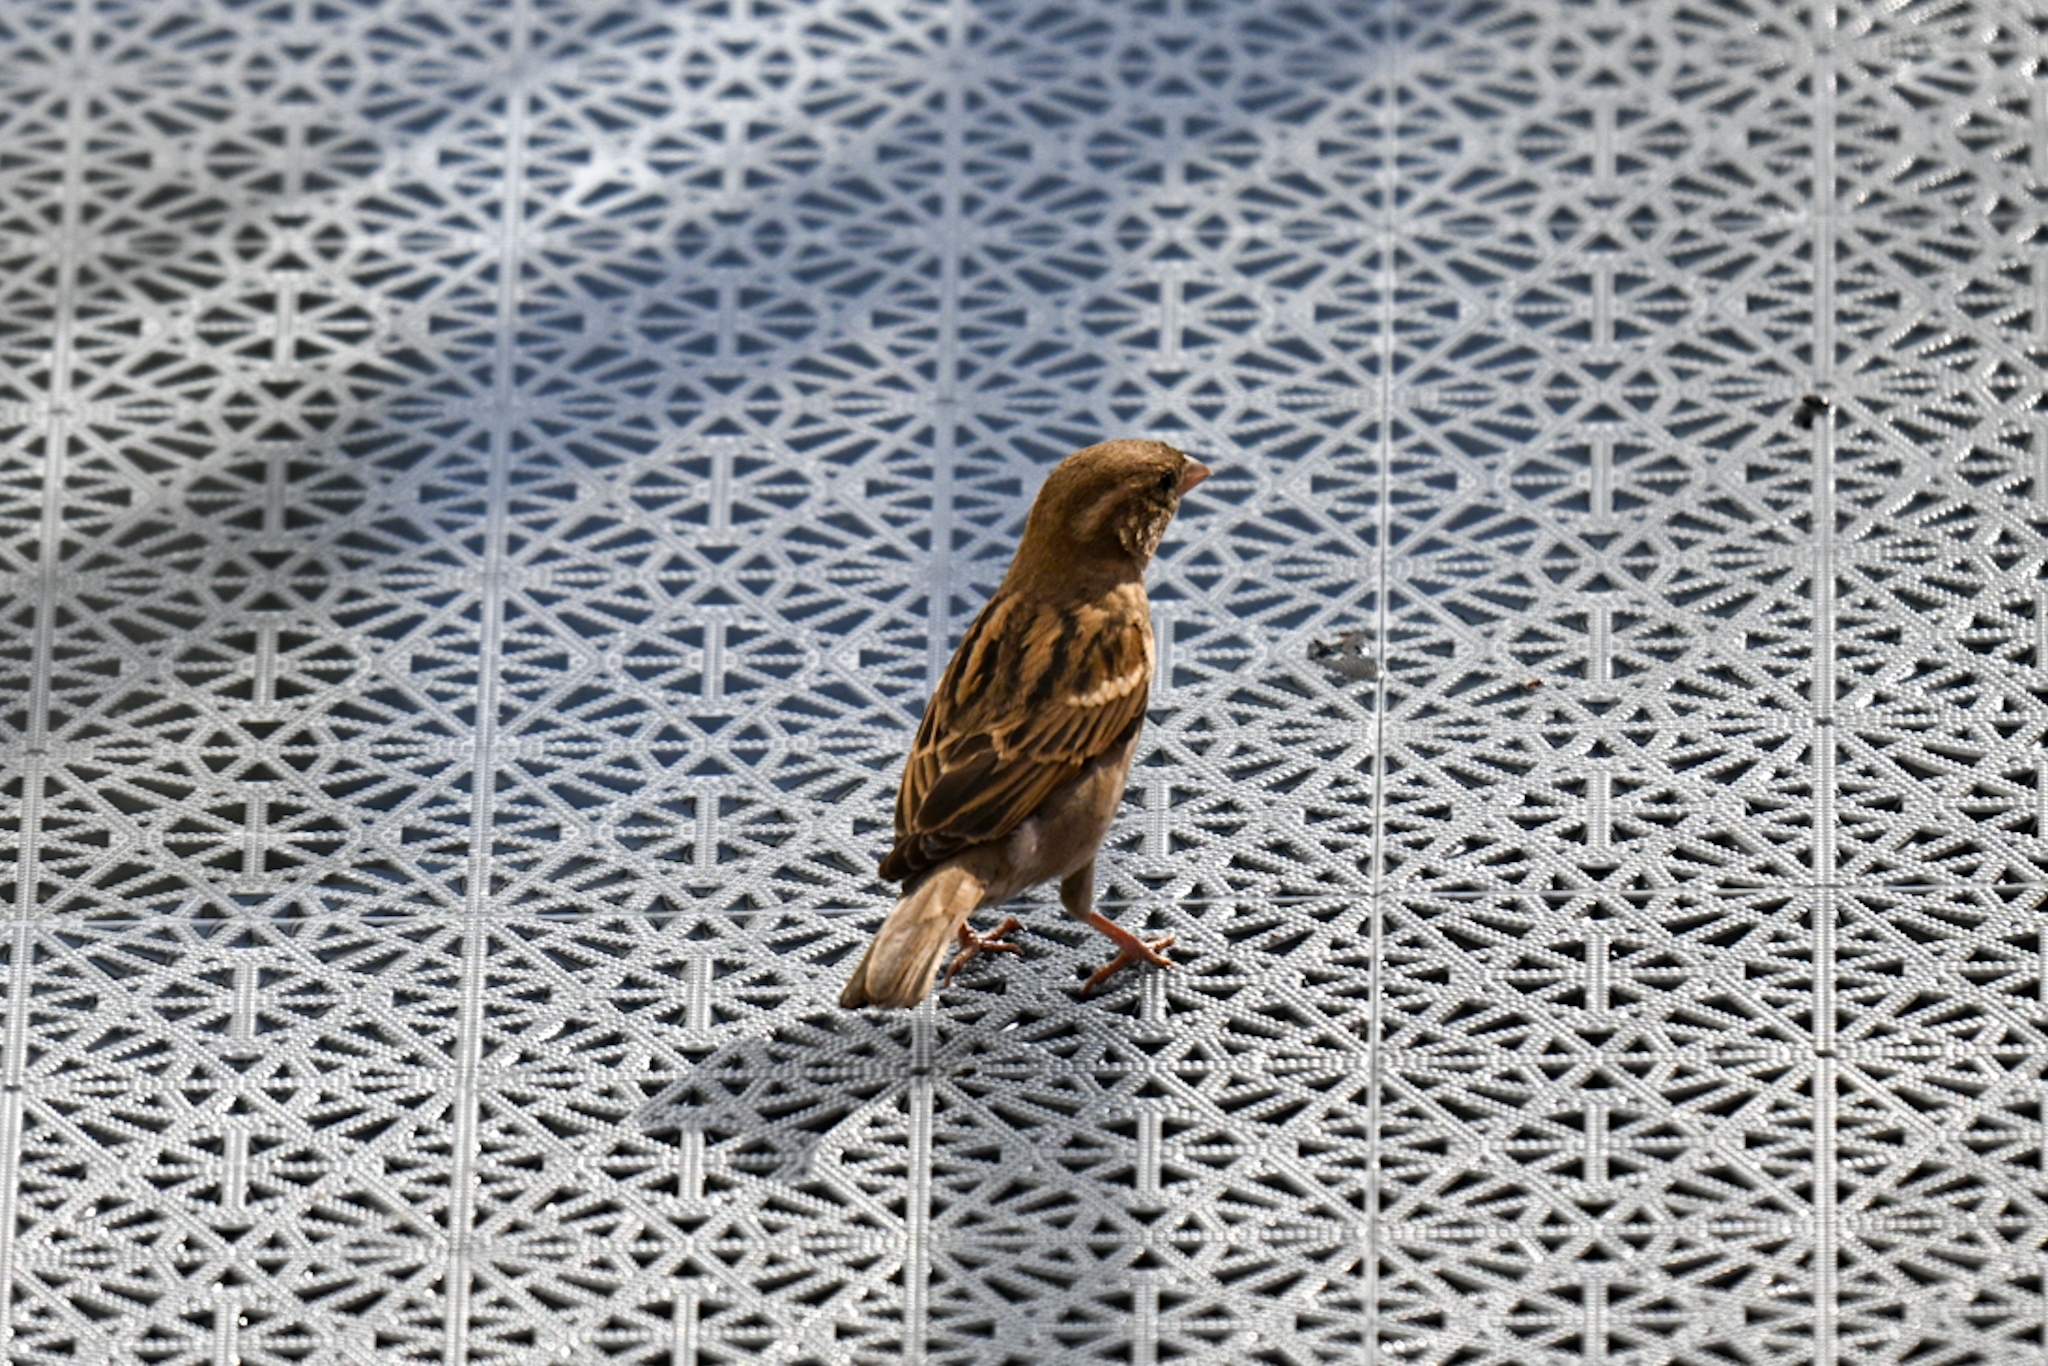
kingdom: Animalia
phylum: Chordata
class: Aves
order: Passeriformes
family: Passeridae
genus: Passer
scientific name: Passer domesticus
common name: House sparrow
